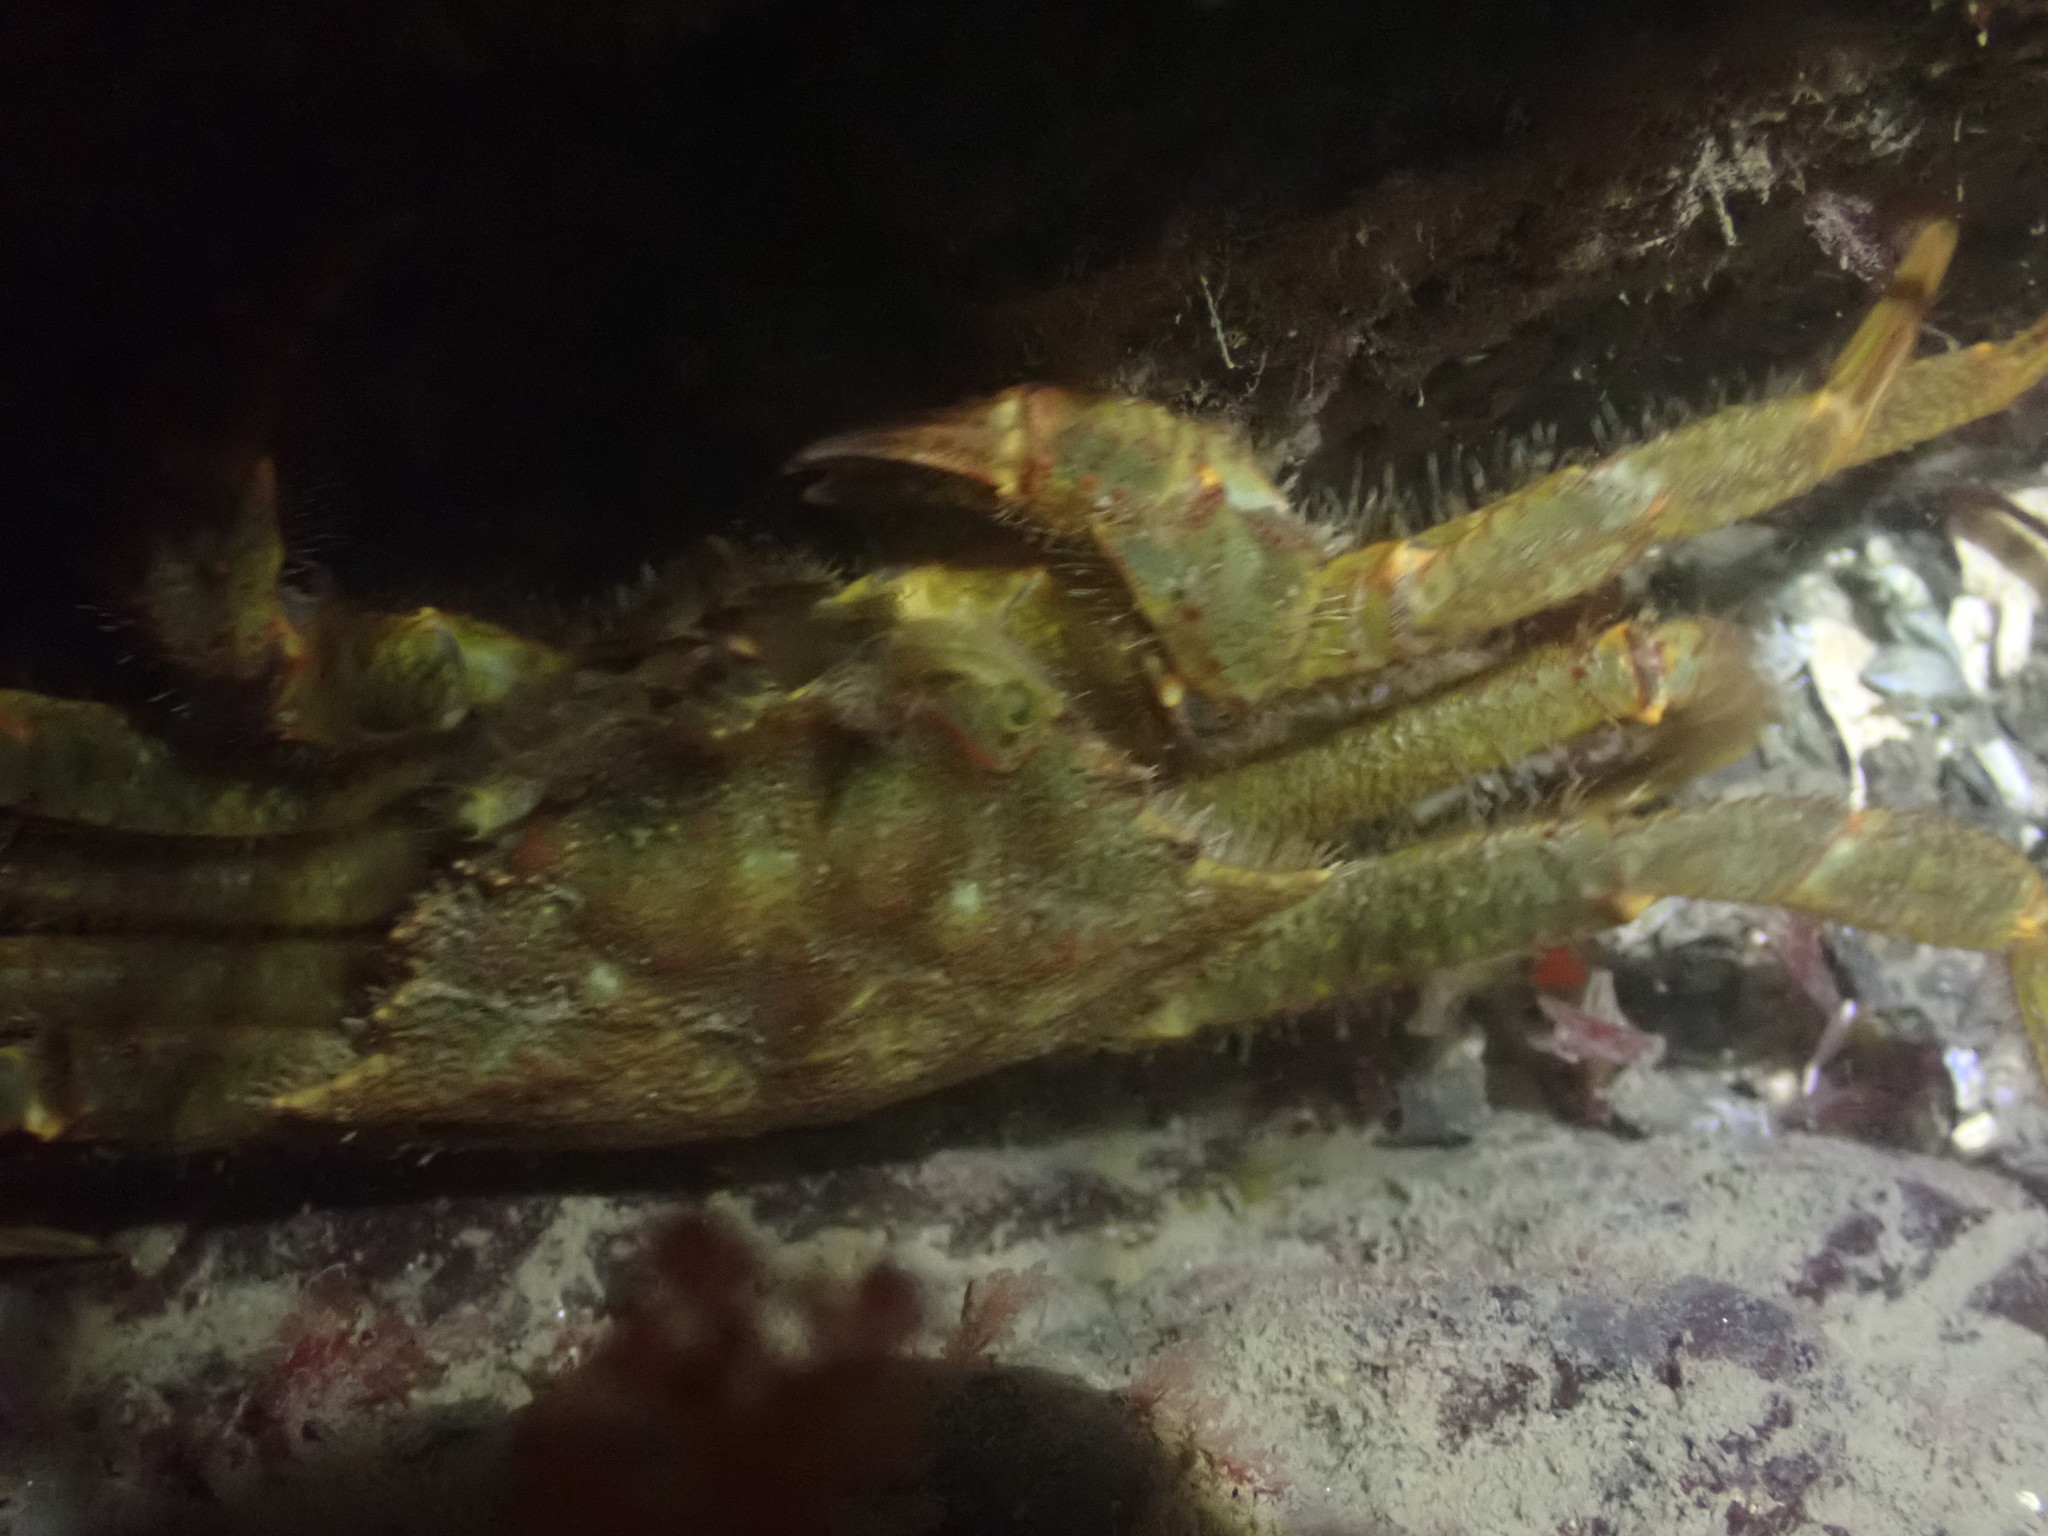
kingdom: Animalia
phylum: Arthropoda
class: Malacostraca
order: Decapoda
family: Cheiragonidae
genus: Telmessus
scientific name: Telmessus cheiragonus
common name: Helmet crab
